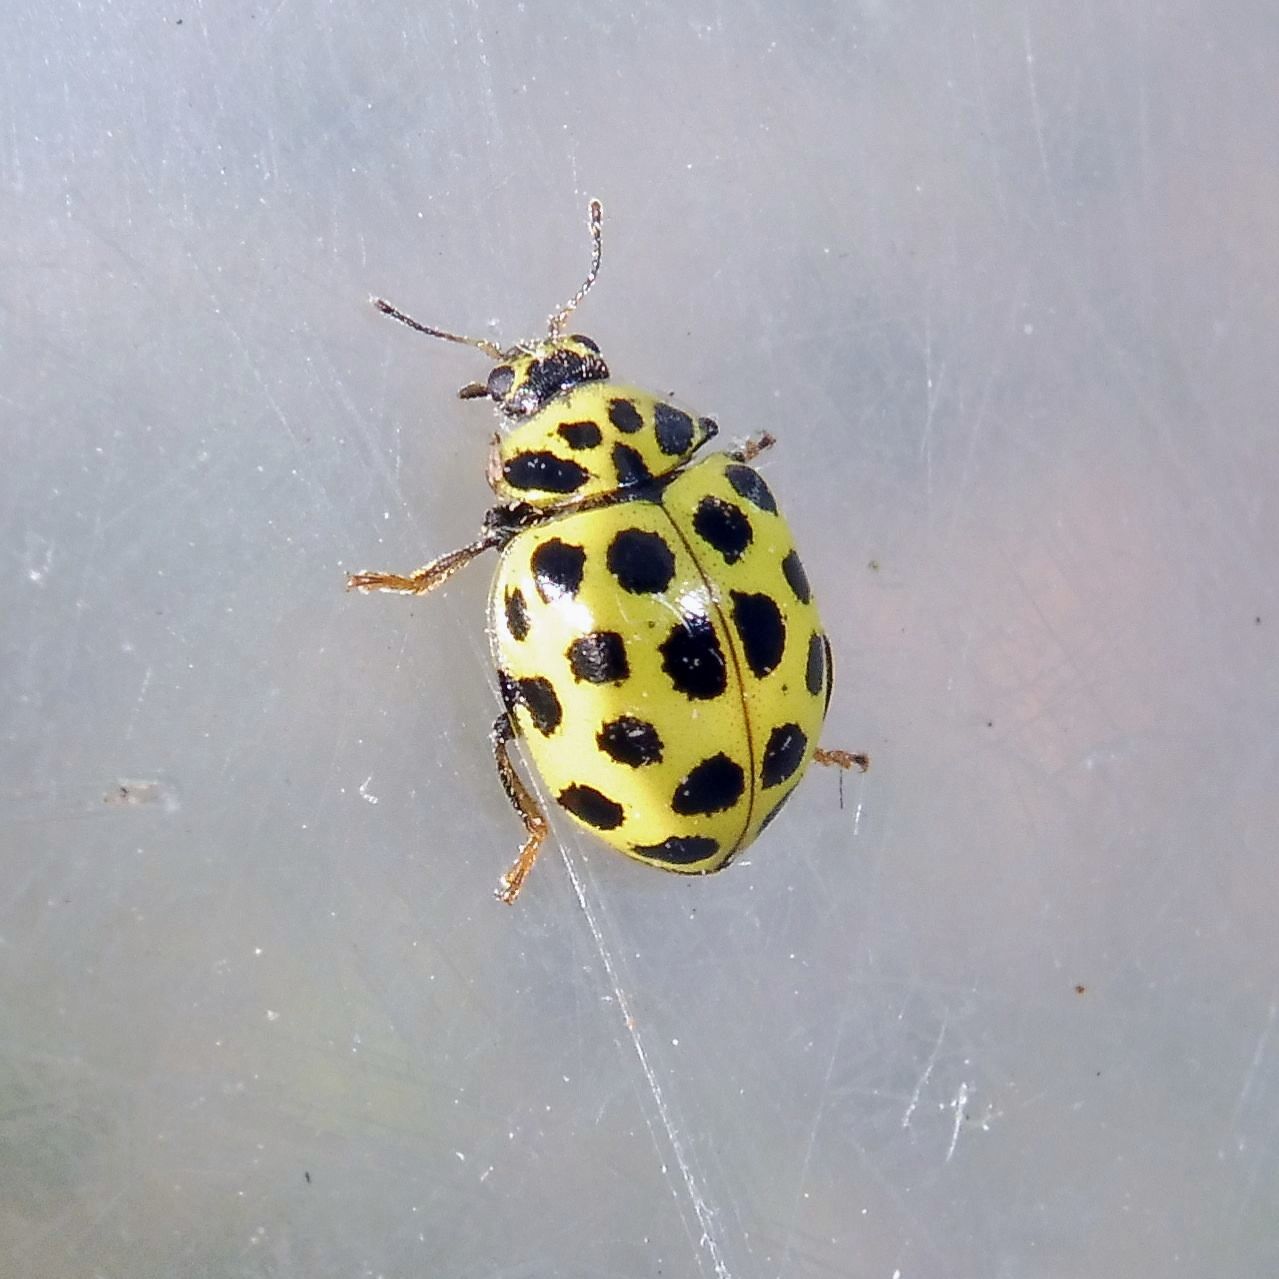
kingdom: Animalia
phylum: Arthropoda
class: Insecta
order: Coleoptera
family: Coccinellidae
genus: Psyllobora
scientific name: Psyllobora vigintiduopunctata
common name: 22-spot ladybird
